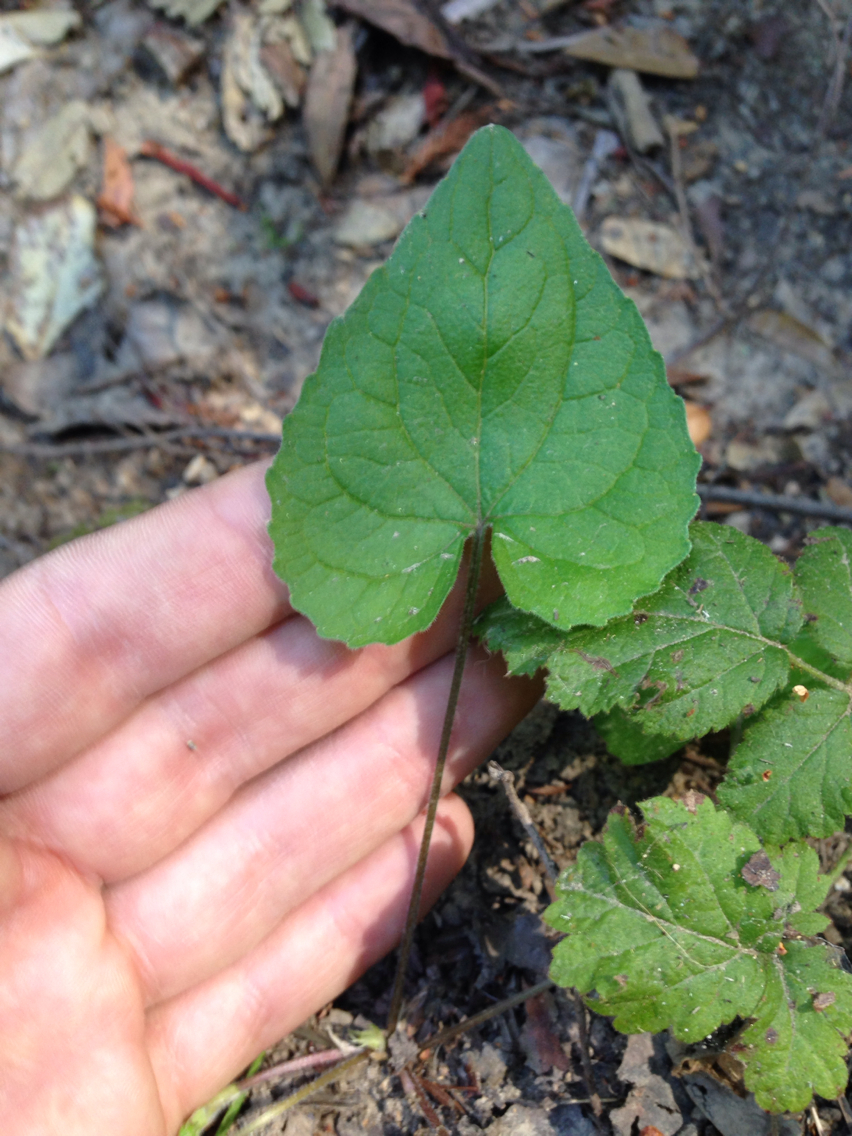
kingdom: Plantae
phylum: Tracheophyta
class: Magnoliopsida
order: Malpighiales
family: Violaceae
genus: Viola
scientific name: Viola ocellata
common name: Western heart's ease
